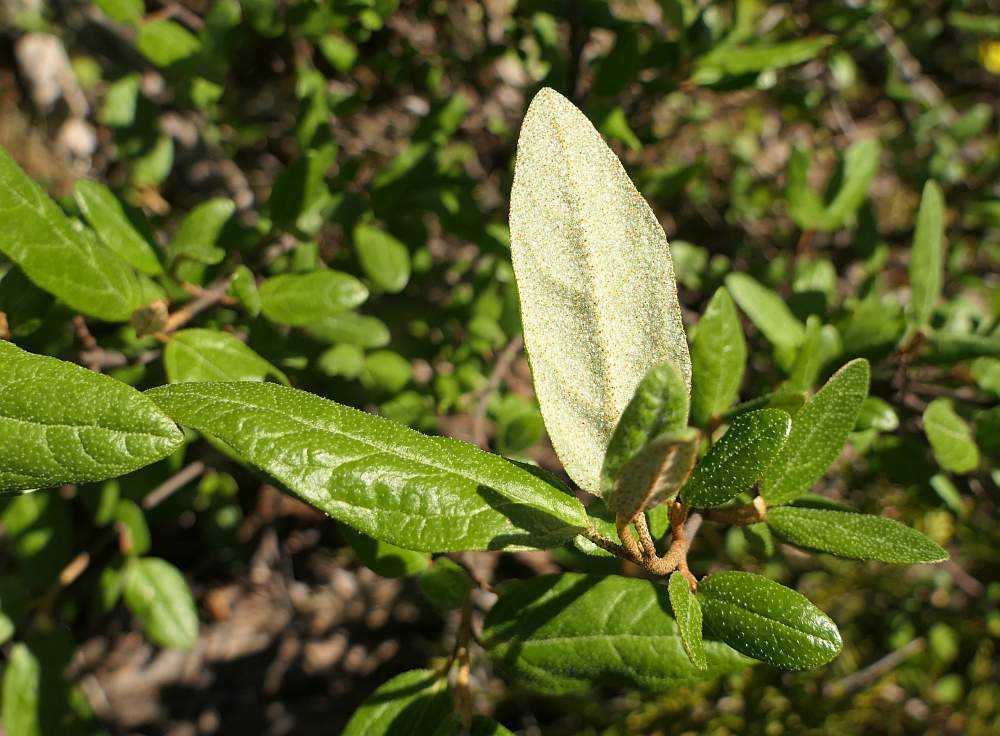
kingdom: Plantae
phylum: Tracheophyta
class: Magnoliopsida
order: Rosales
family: Elaeagnaceae
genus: Shepherdia
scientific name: Shepherdia canadensis
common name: Soapberry
